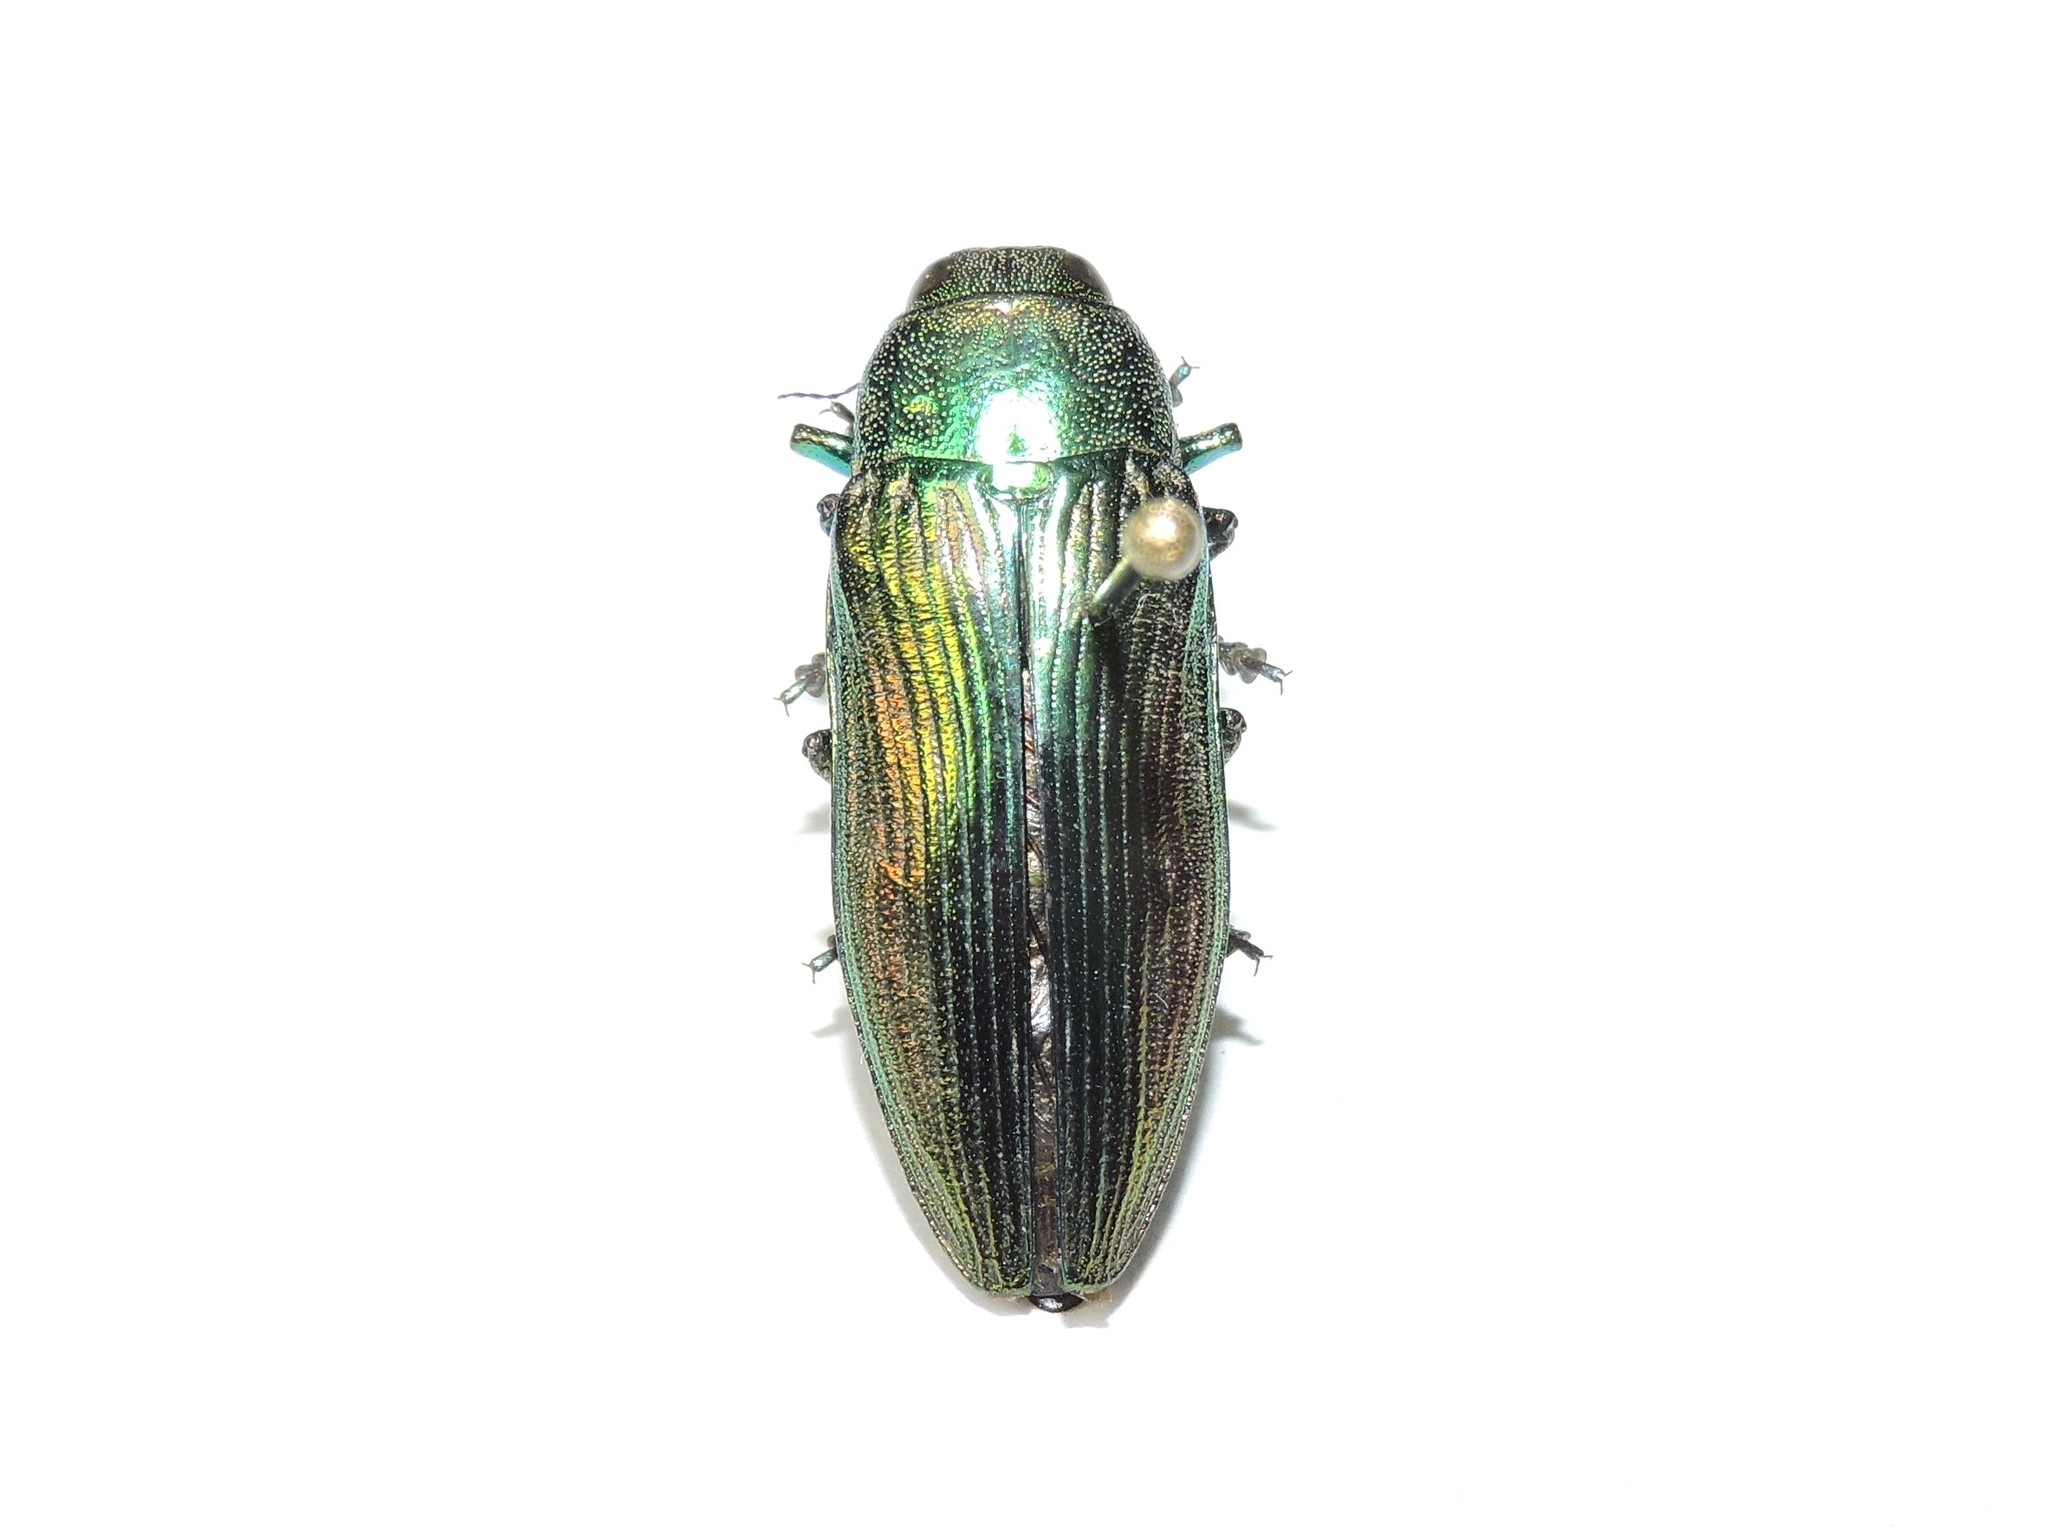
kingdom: Animalia
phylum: Arthropoda
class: Insecta
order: Coleoptera
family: Buprestidae
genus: Eurythyrea
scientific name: Eurythyrea aurata
